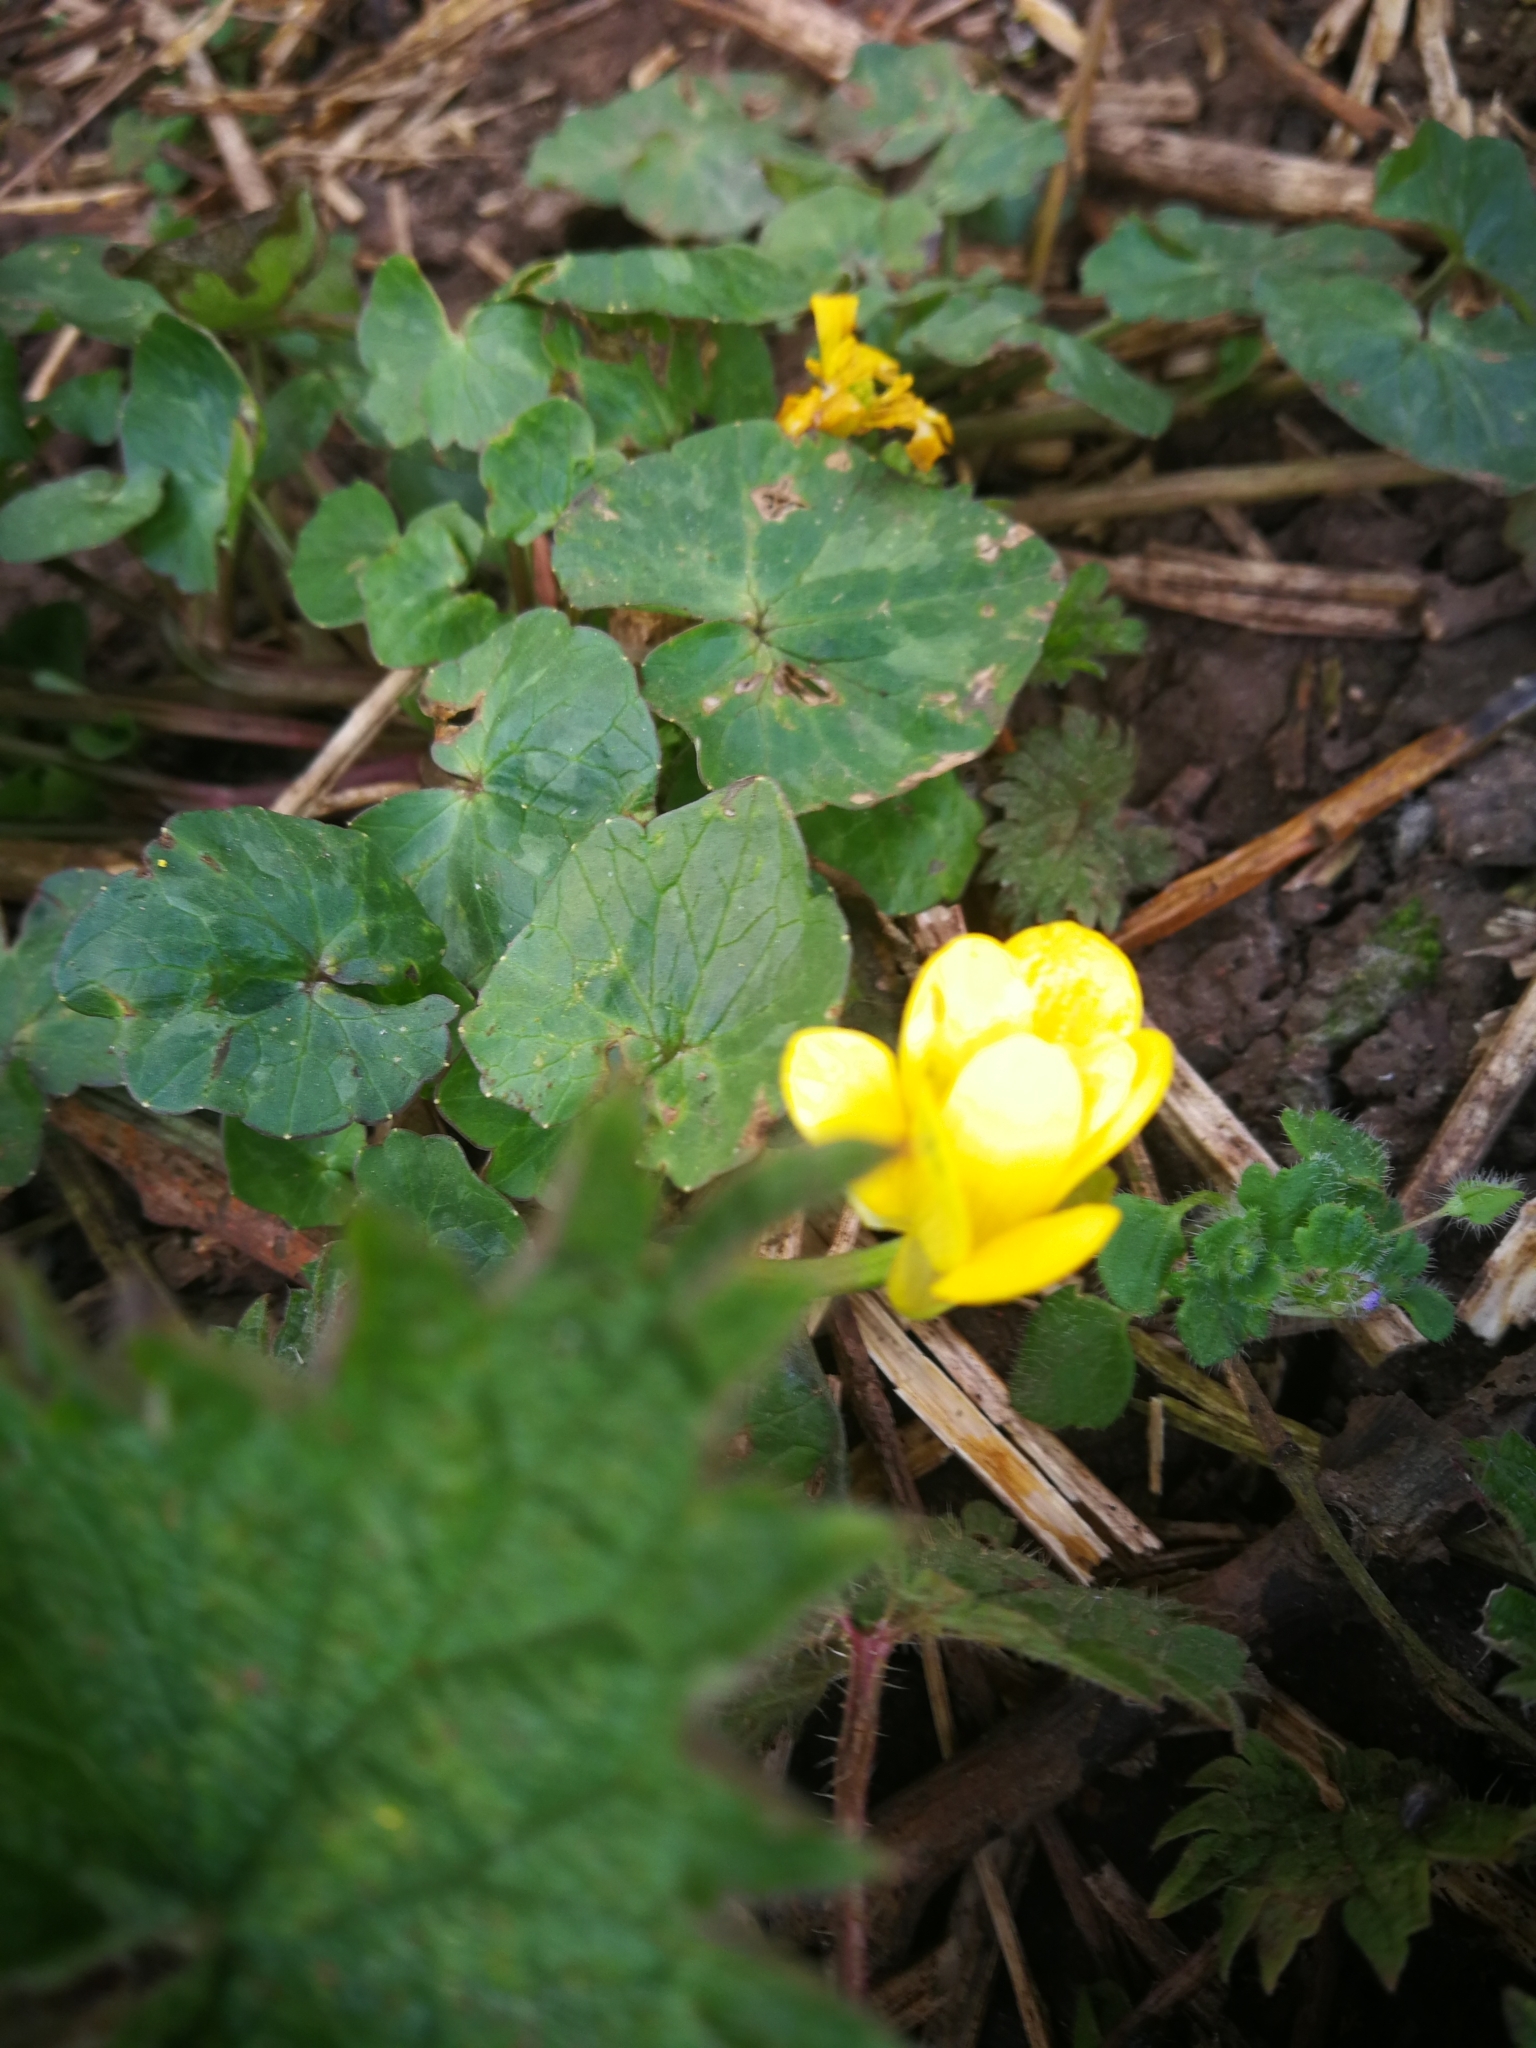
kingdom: Plantae
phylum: Tracheophyta
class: Magnoliopsida
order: Ranunculales
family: Ranunculaceae
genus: Ficaria
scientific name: Ficaria verna
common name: Lesser celandine
